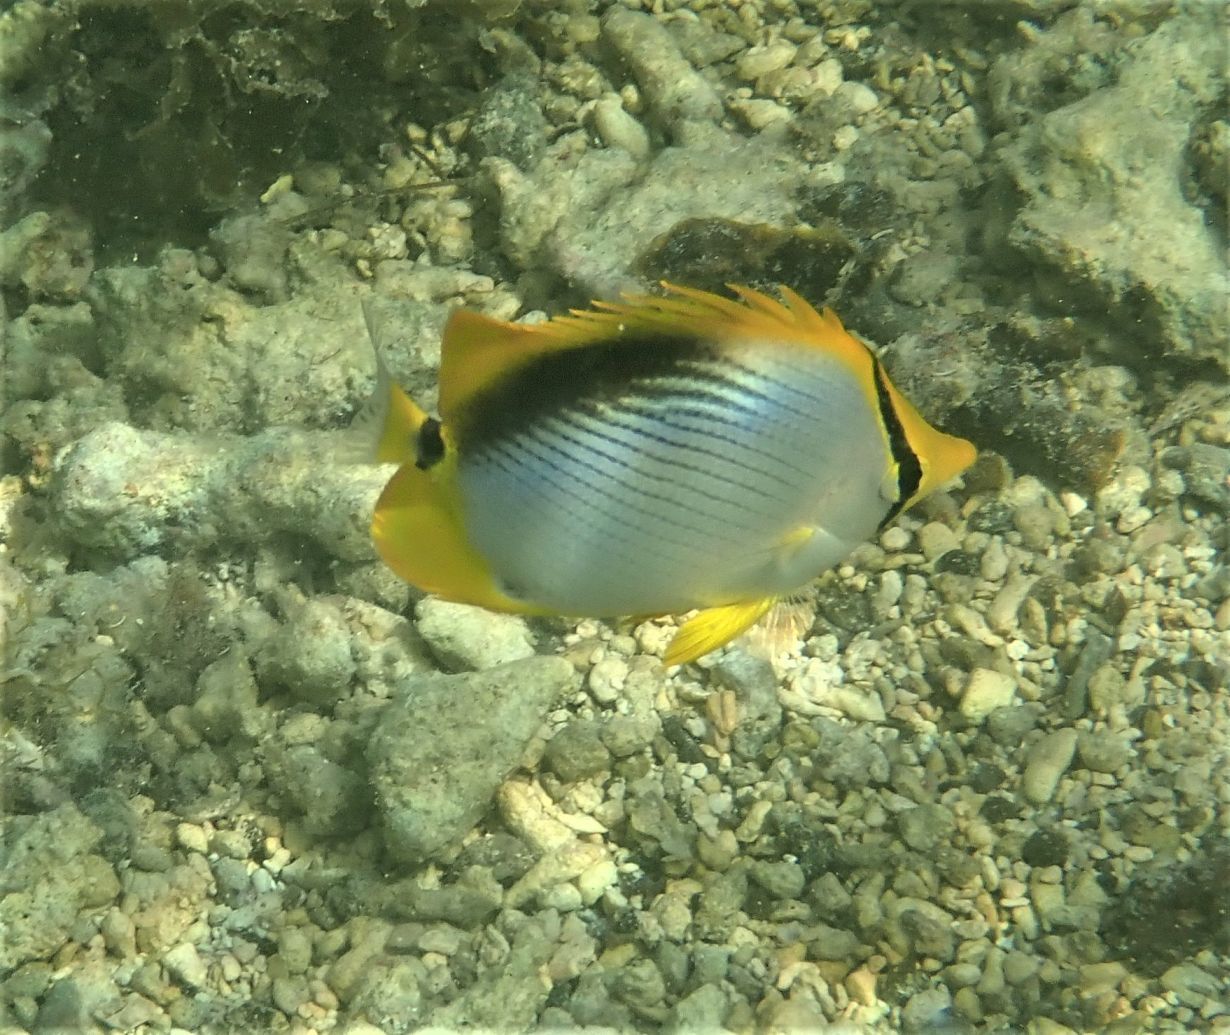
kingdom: Animalia
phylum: Chordata
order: Perciformes
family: Chaetodontidae
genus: Chaetodon
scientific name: Chaetodon melannotus
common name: Blackback butterflyfish
